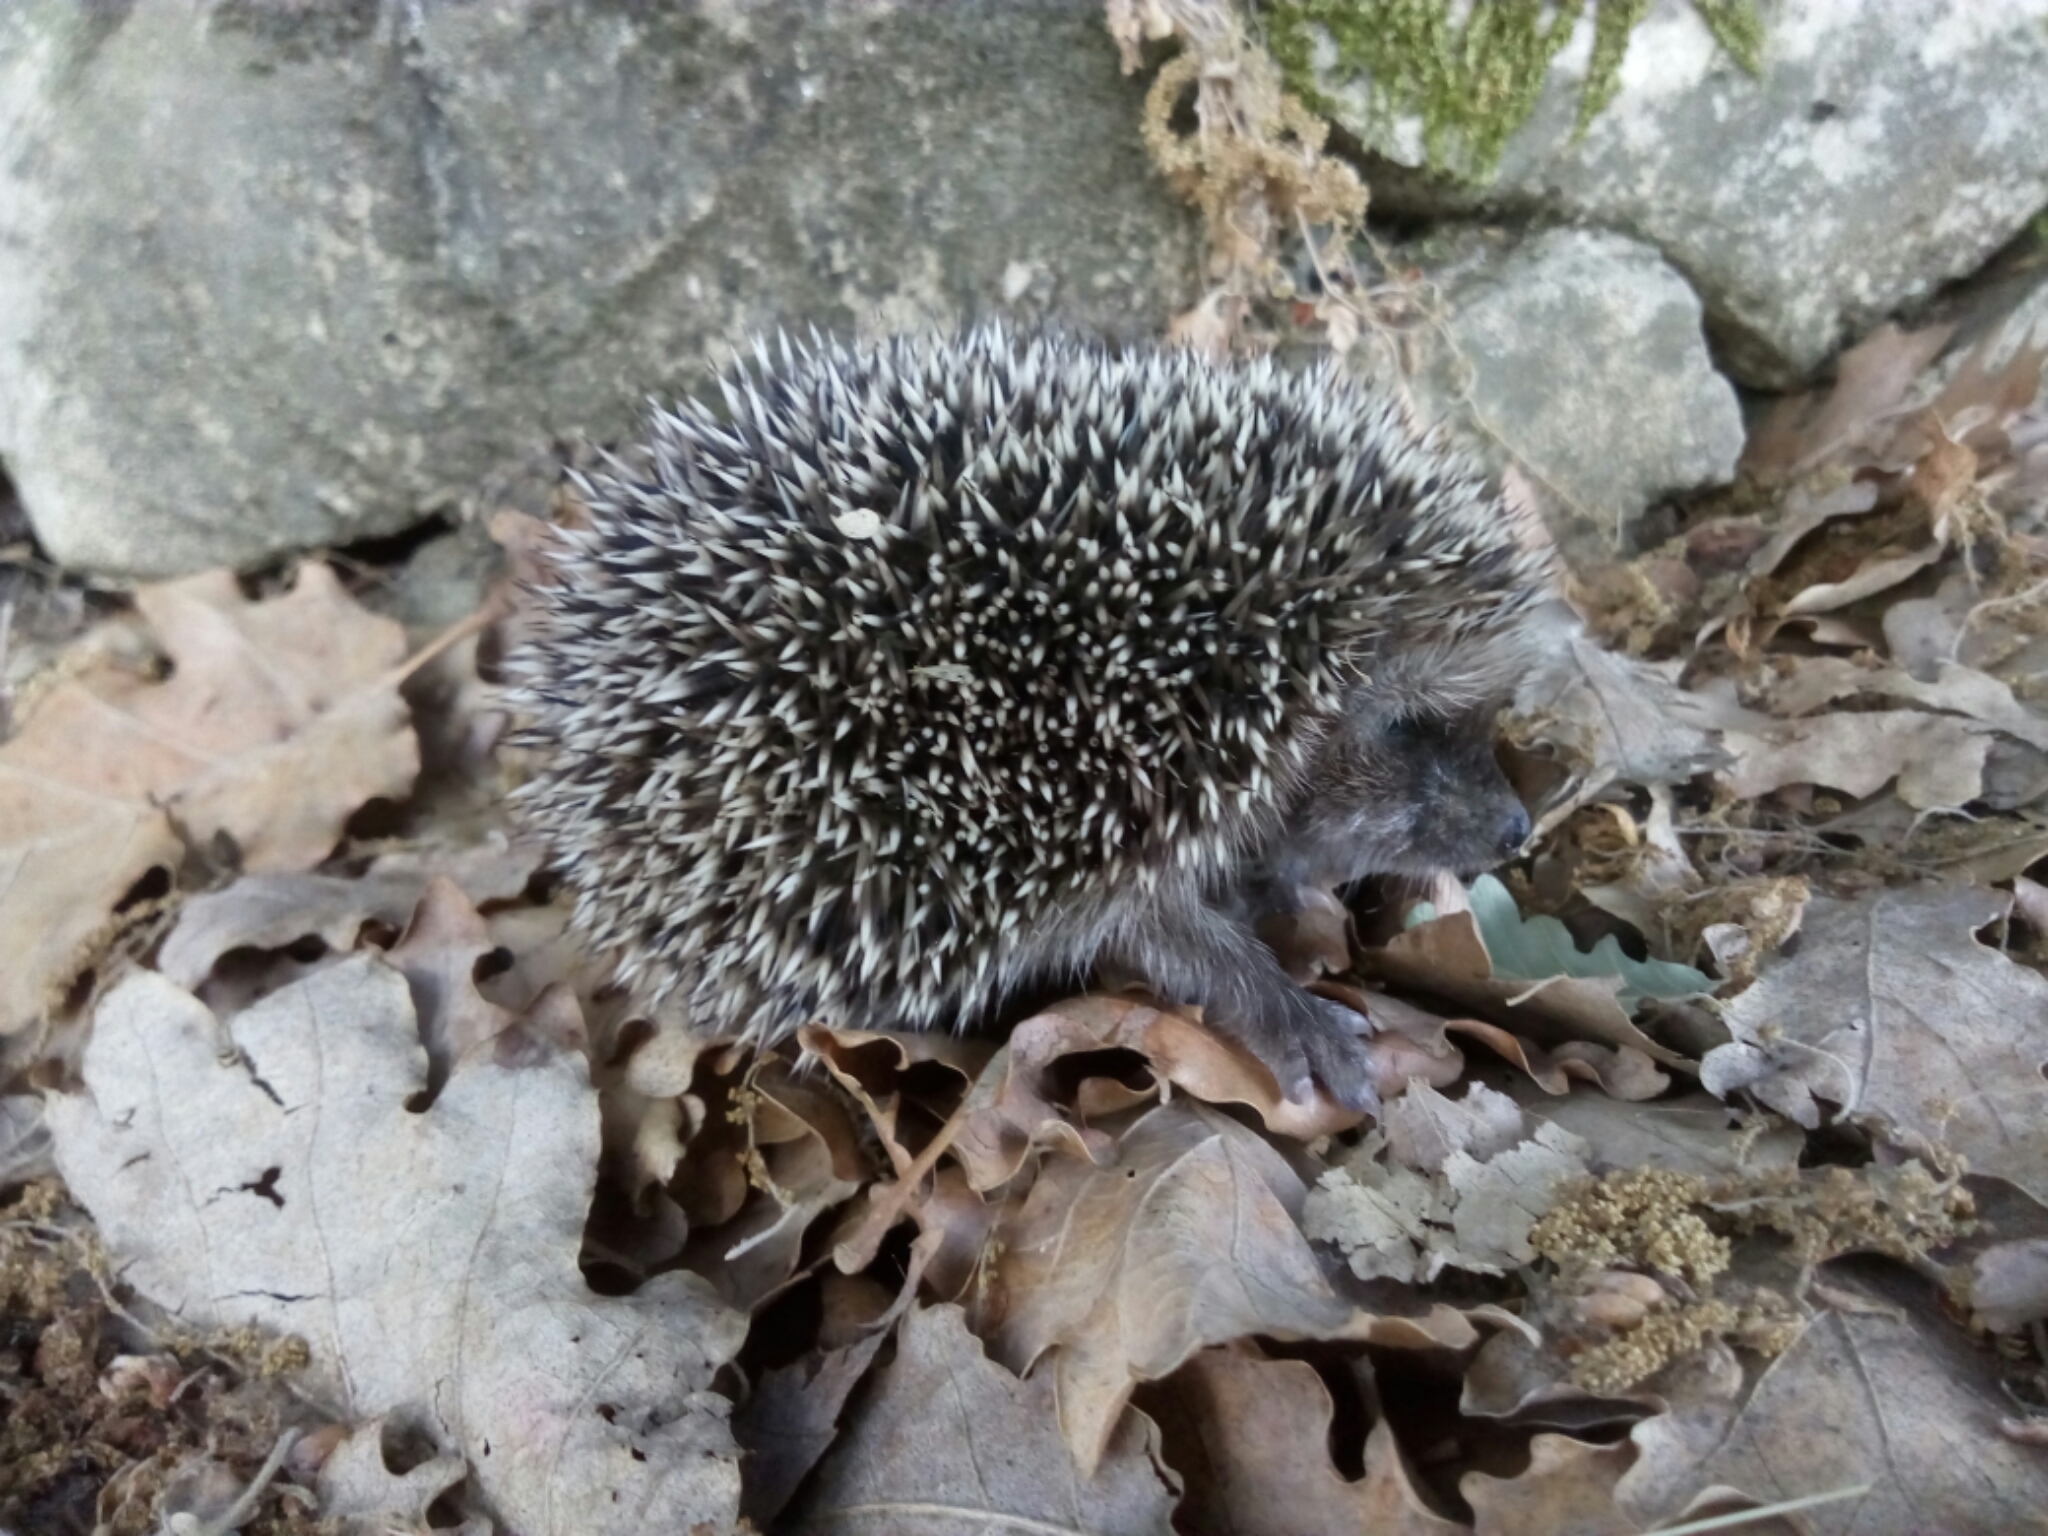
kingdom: Animalia
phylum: Chordata
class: Mammalia
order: Erinaceomorpha
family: Erinaceidae
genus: Erinaceus
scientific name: Erinaceus europaeus
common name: West european hedgehog
